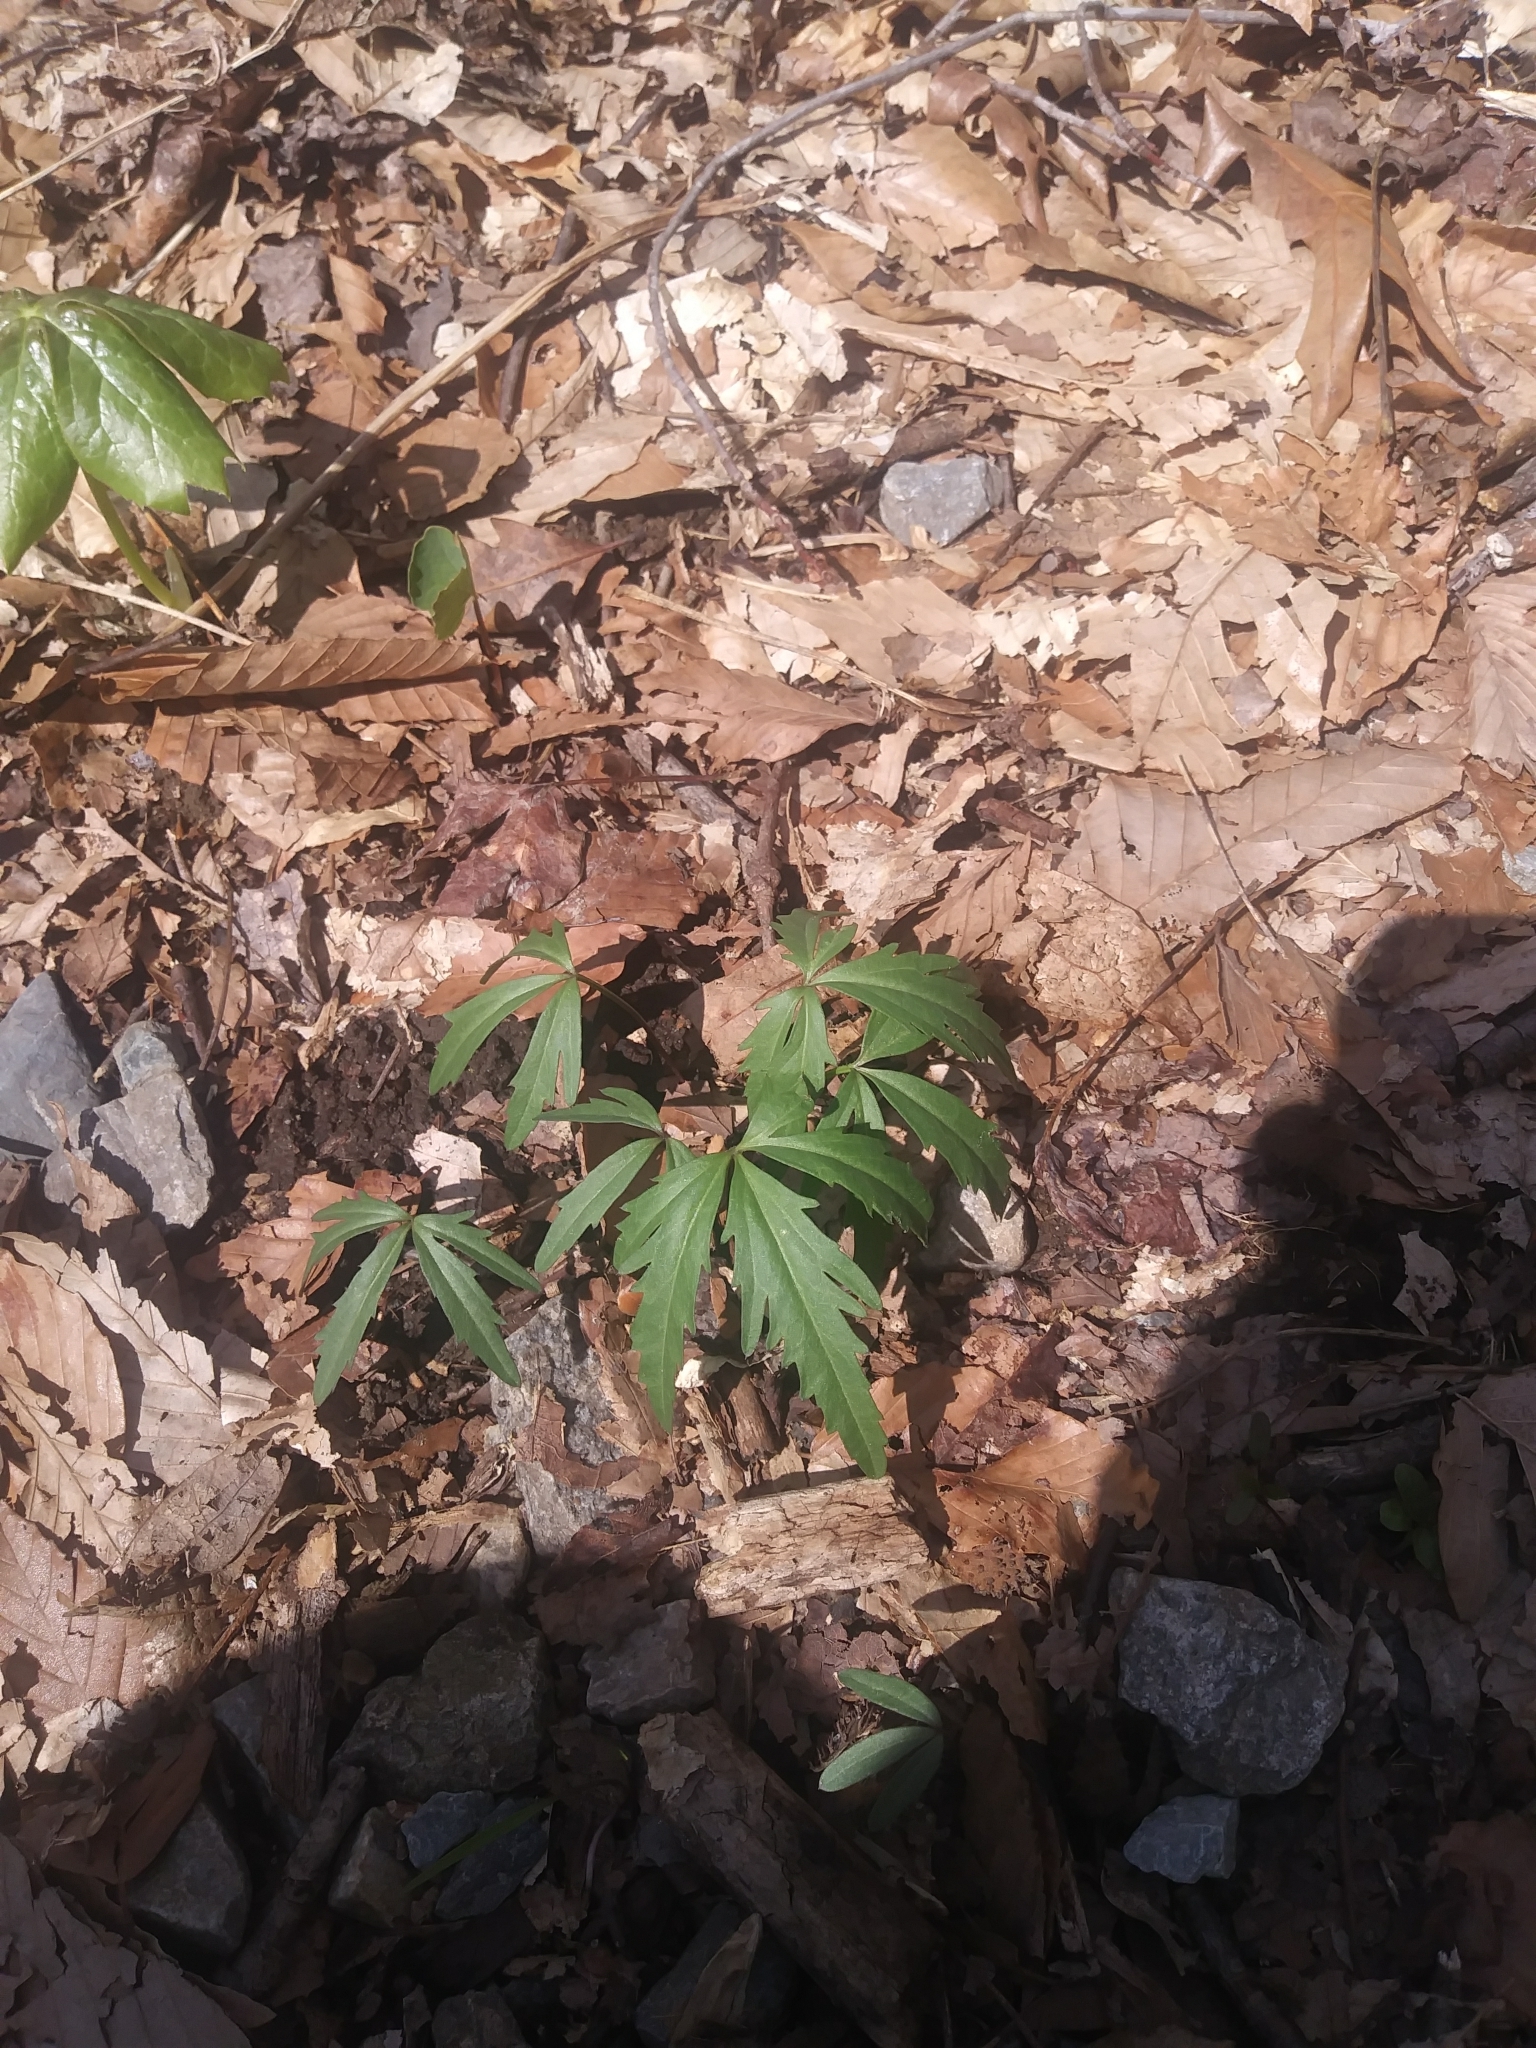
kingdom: Plantae
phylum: Tracheophyta
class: Magnoliopsida
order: Brassicales
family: Brassicaceae
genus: Cardamine
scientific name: Cardamine concatenata
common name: Cut-leaf toothcup
